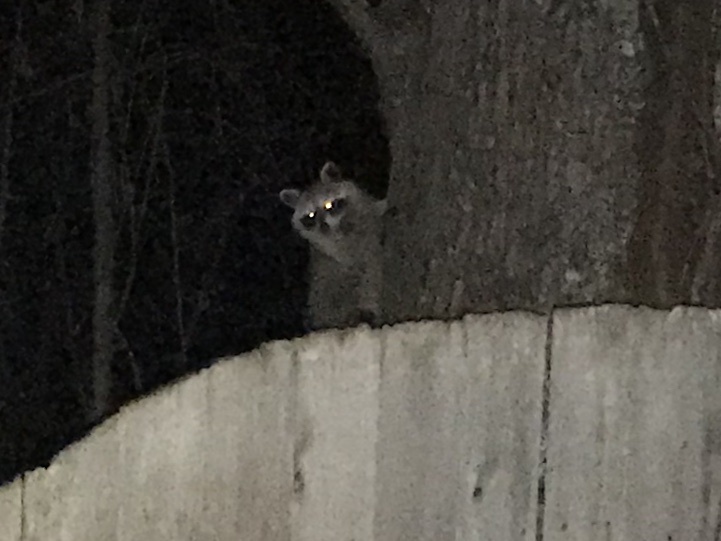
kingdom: Animalia
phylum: Chordata
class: Mammalia
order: Carnivora
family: Procyonidae
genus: Procyon
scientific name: Procyon lotor
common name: Raccoon
